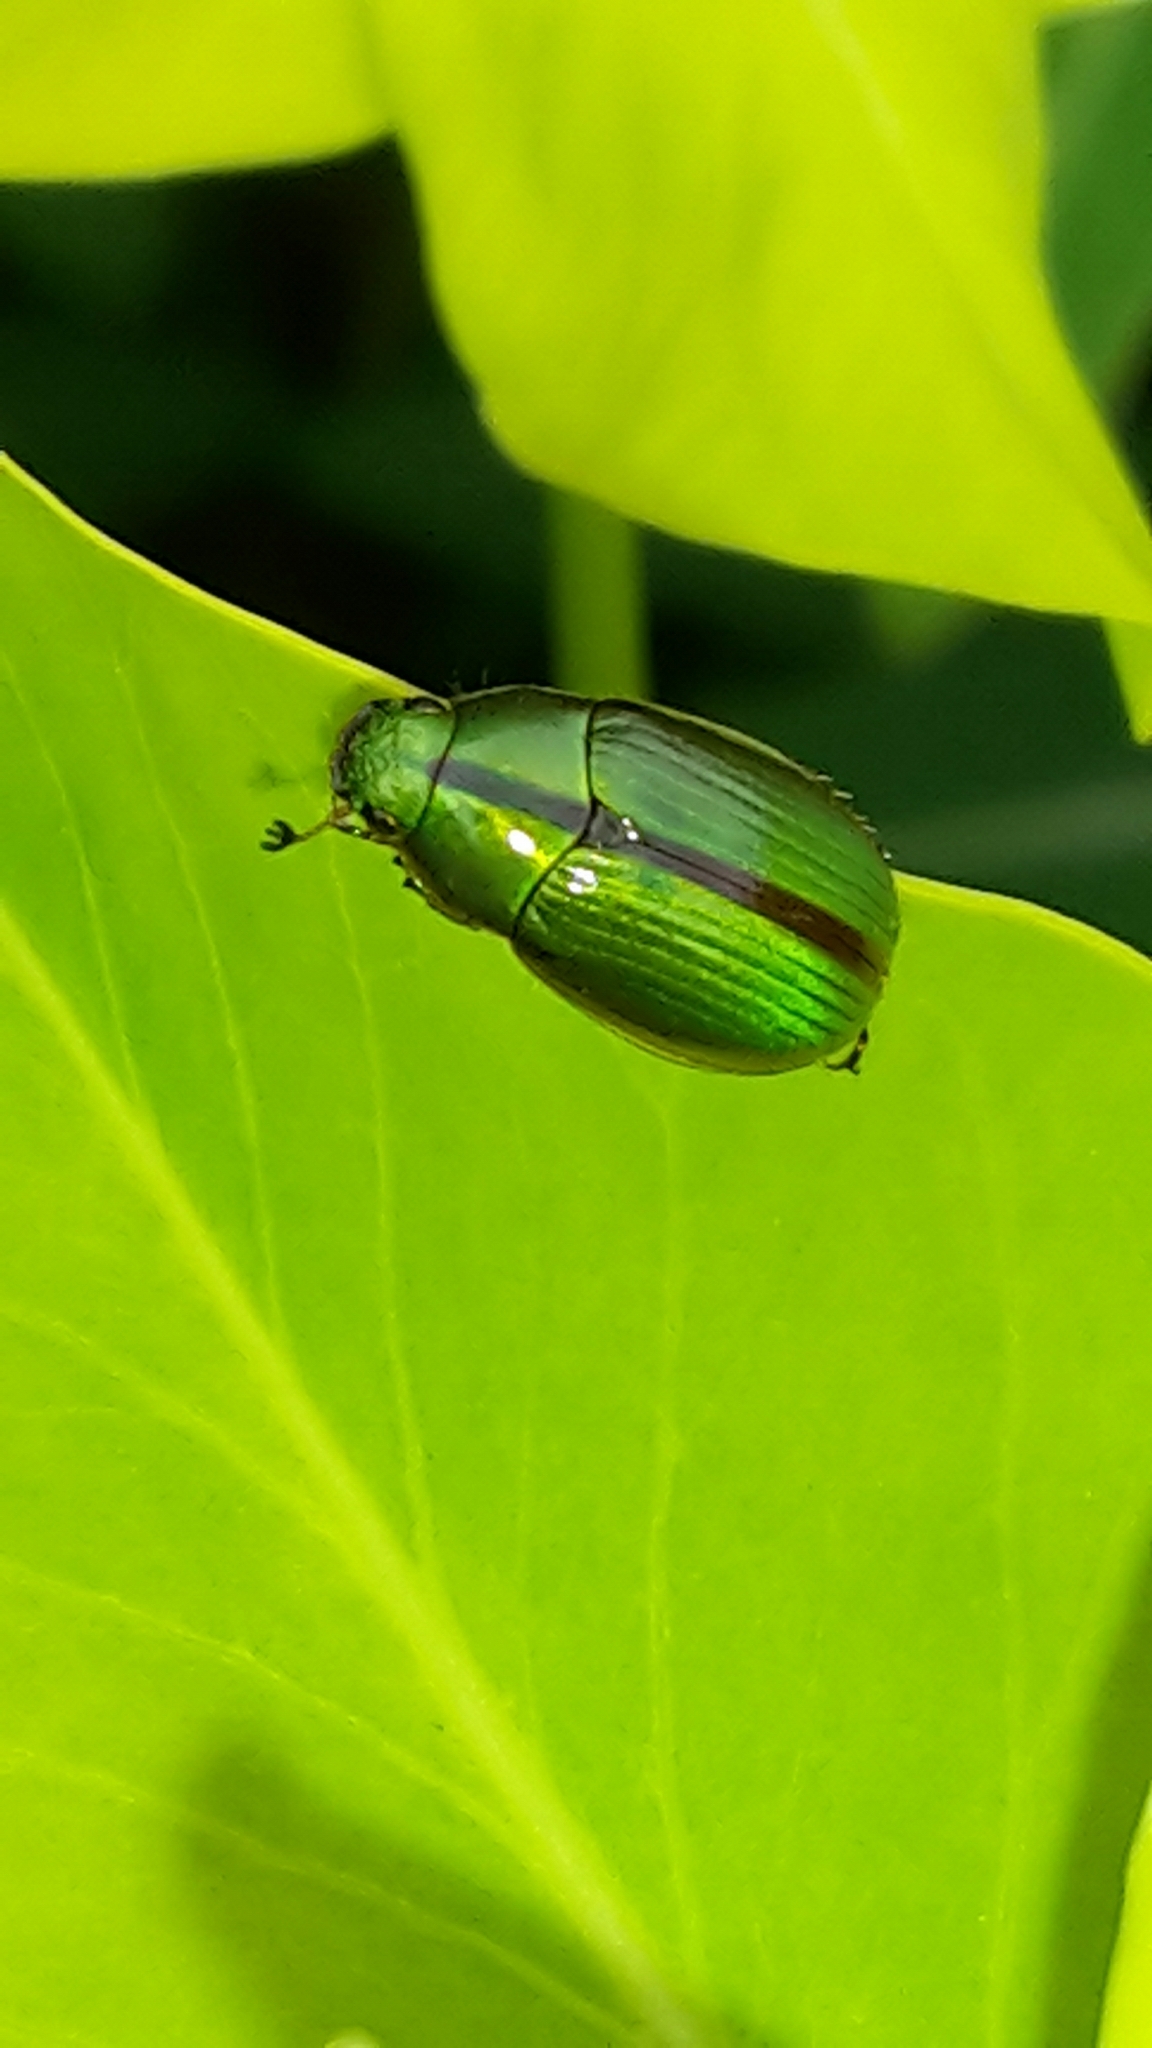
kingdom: Animalia
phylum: Arthropoda
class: Insecta
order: Coleoptera
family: Scarabaeidae
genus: Pyronota
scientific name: Pyronota festiva
